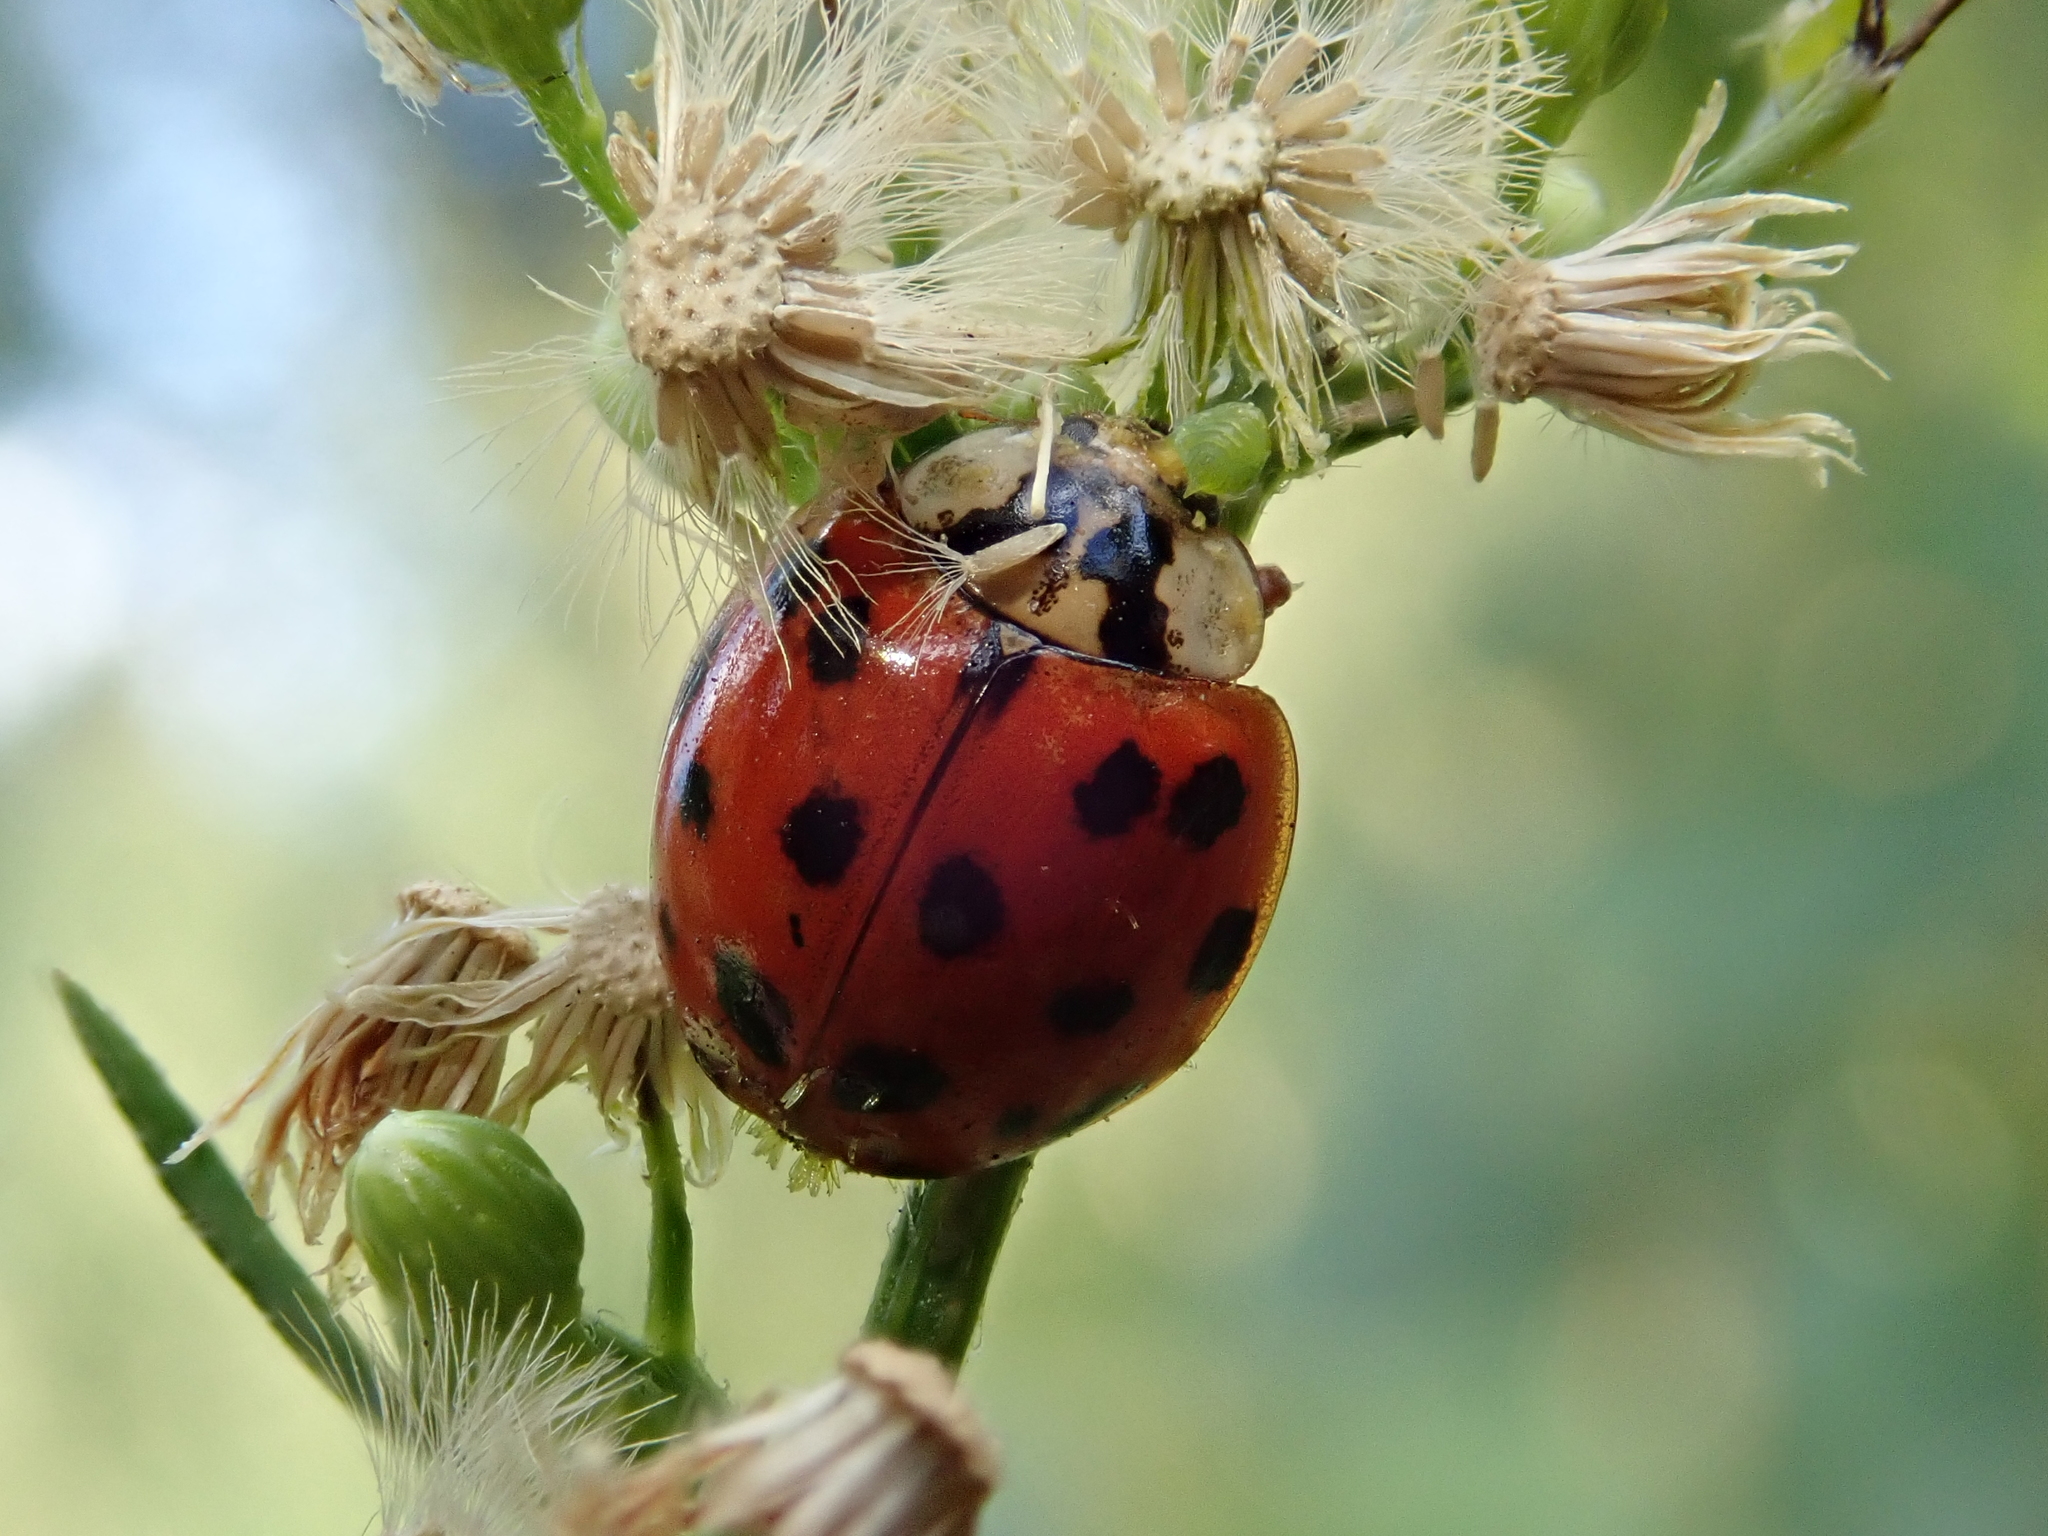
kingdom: Animalia
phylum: Arthropoda
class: Insecta
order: Coleoptera
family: Coccinellidae
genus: Harmonia
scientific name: Harmonia axyridis
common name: Harlequin ladybird
